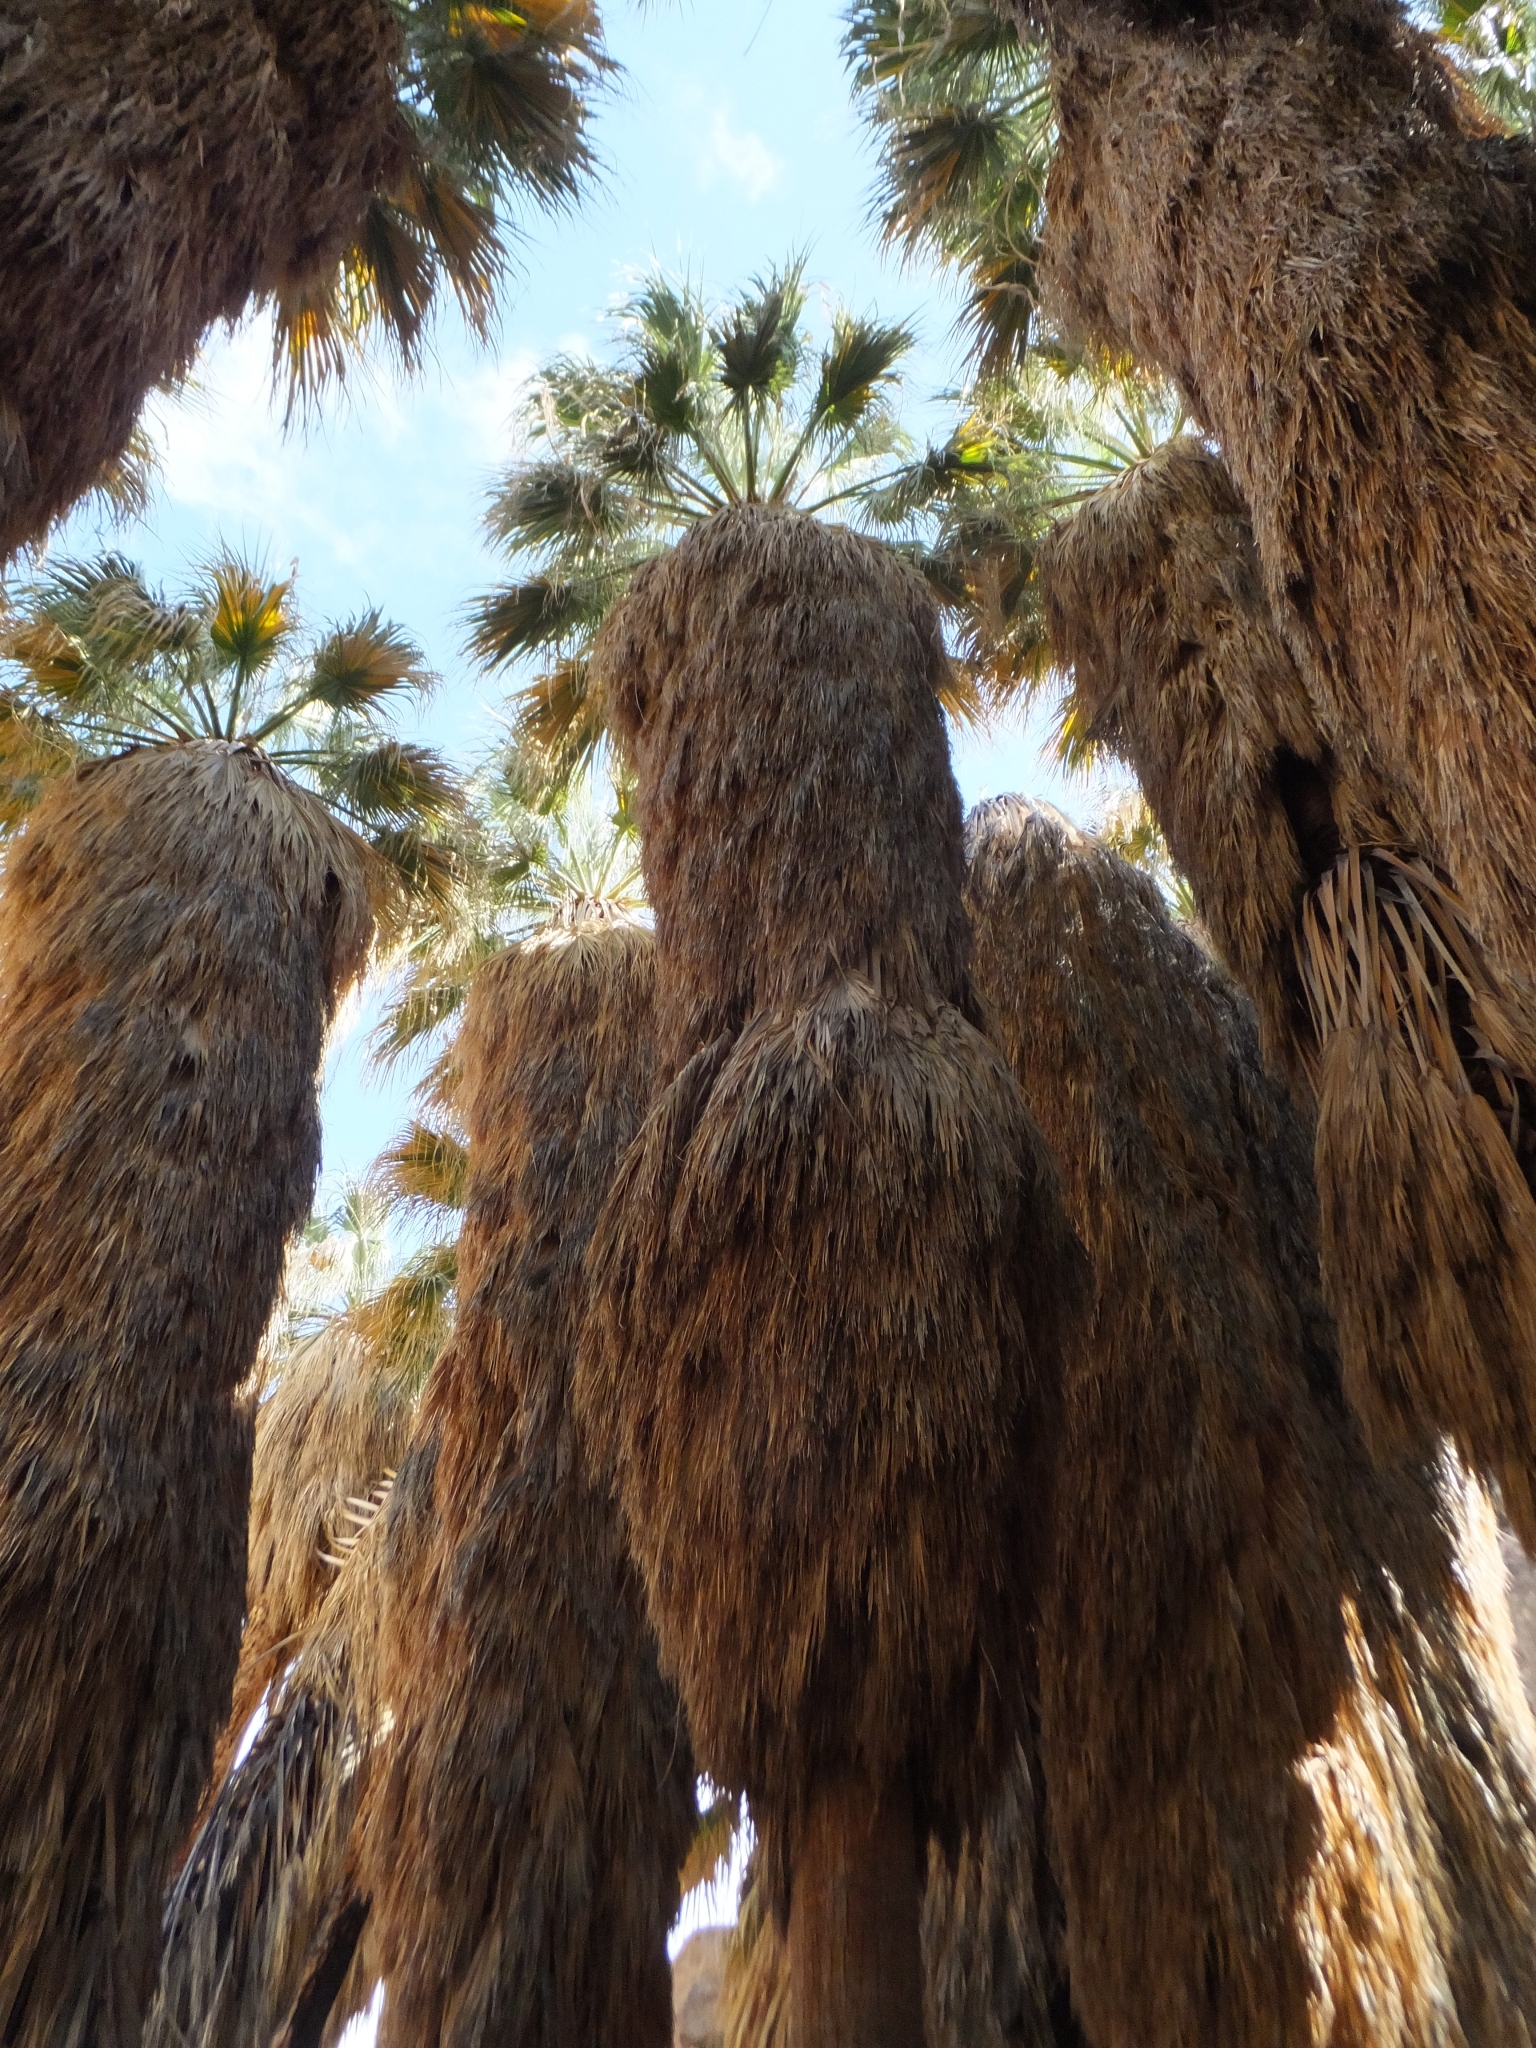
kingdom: Plantae
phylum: Tracheophyta
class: Liliopsida
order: Arecales
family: Arecaceae
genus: Washingtonia
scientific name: Washingtonia filifera
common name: California fan palm
